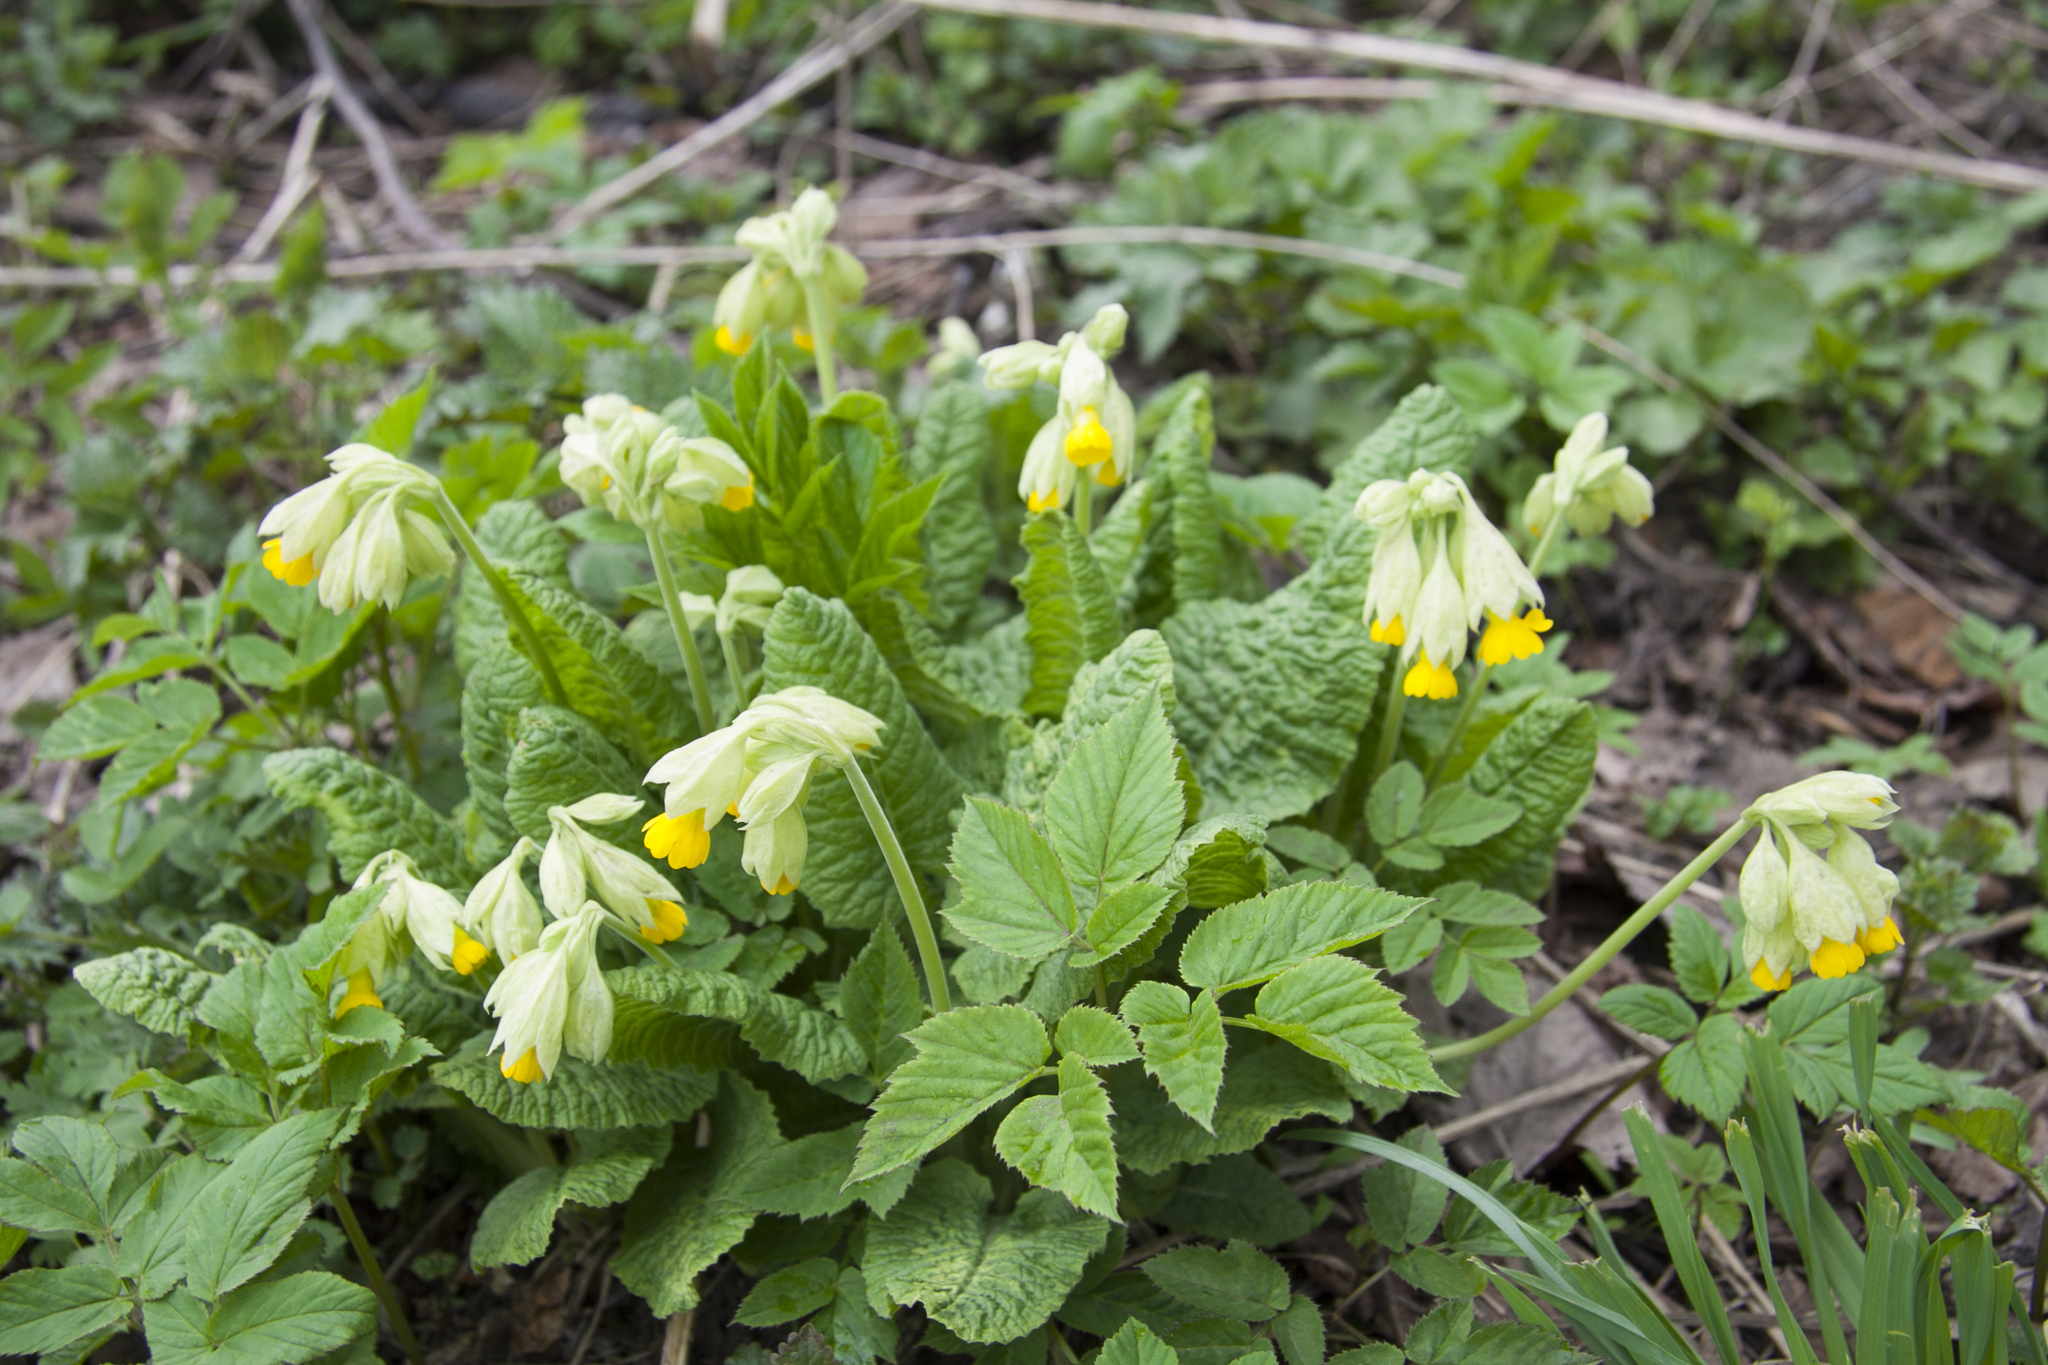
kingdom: Plantae
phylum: Tracheophyta
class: Magnoliopsida
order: Ericales
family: Primulaceae
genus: Primula
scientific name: Primula veris
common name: Cowslip
